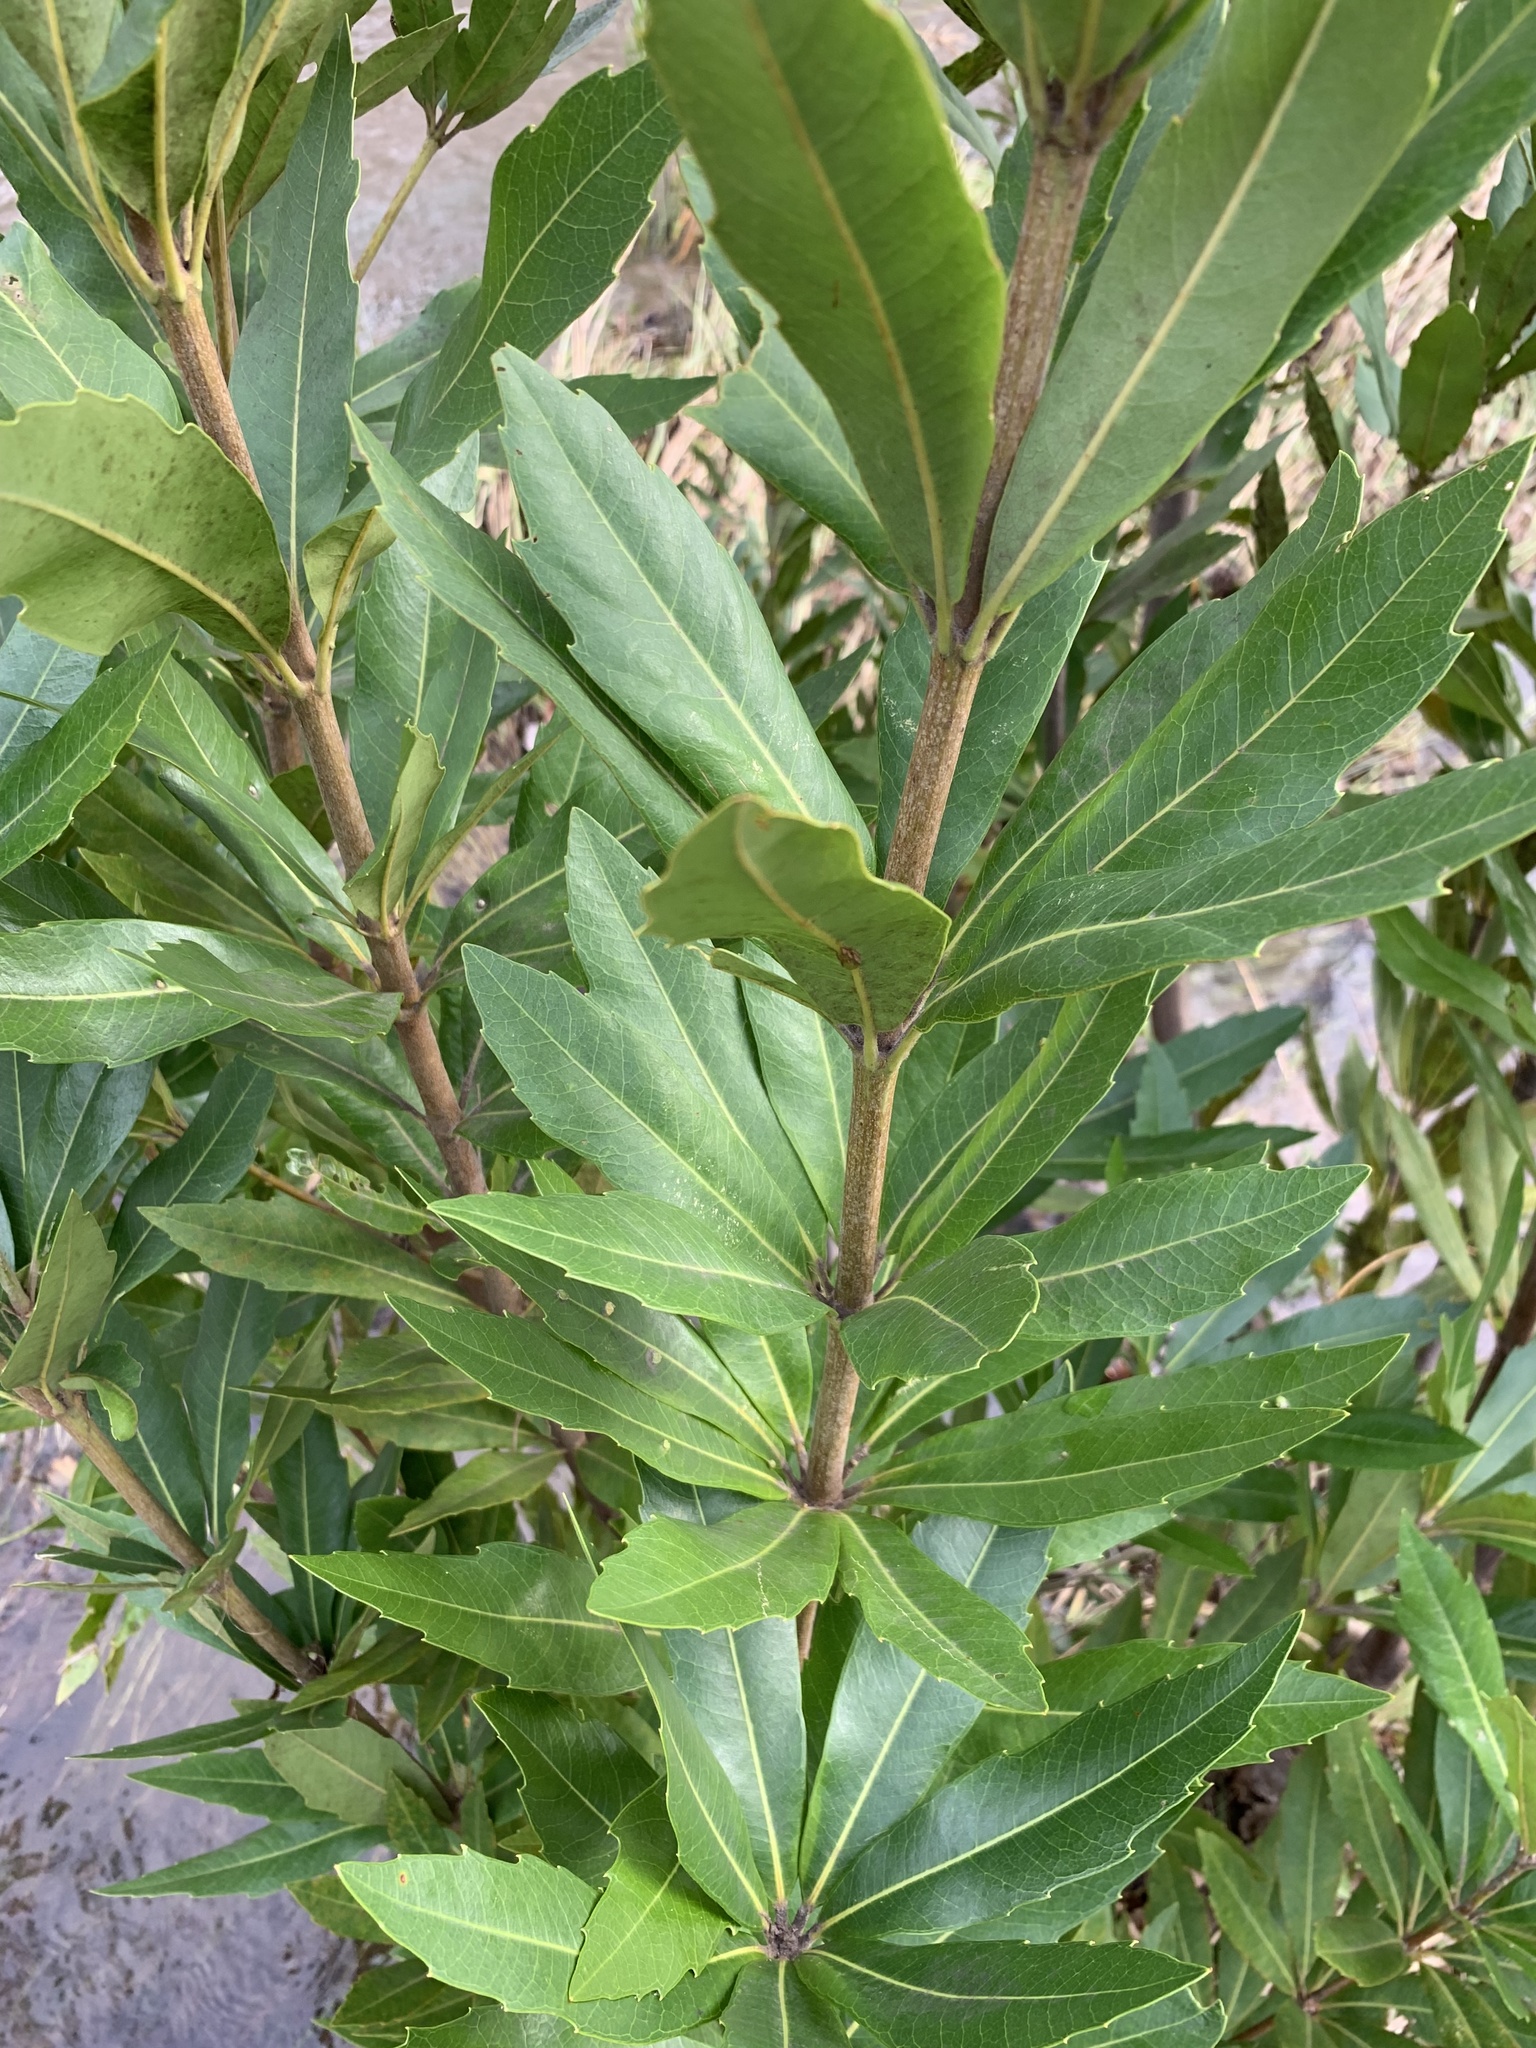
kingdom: Plantae
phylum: Tracheophyta
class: Magnoliopsida
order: Proteales
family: Proteaceae
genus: Brabejum
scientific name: Brabejum stellatifolium
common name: Wild almond
